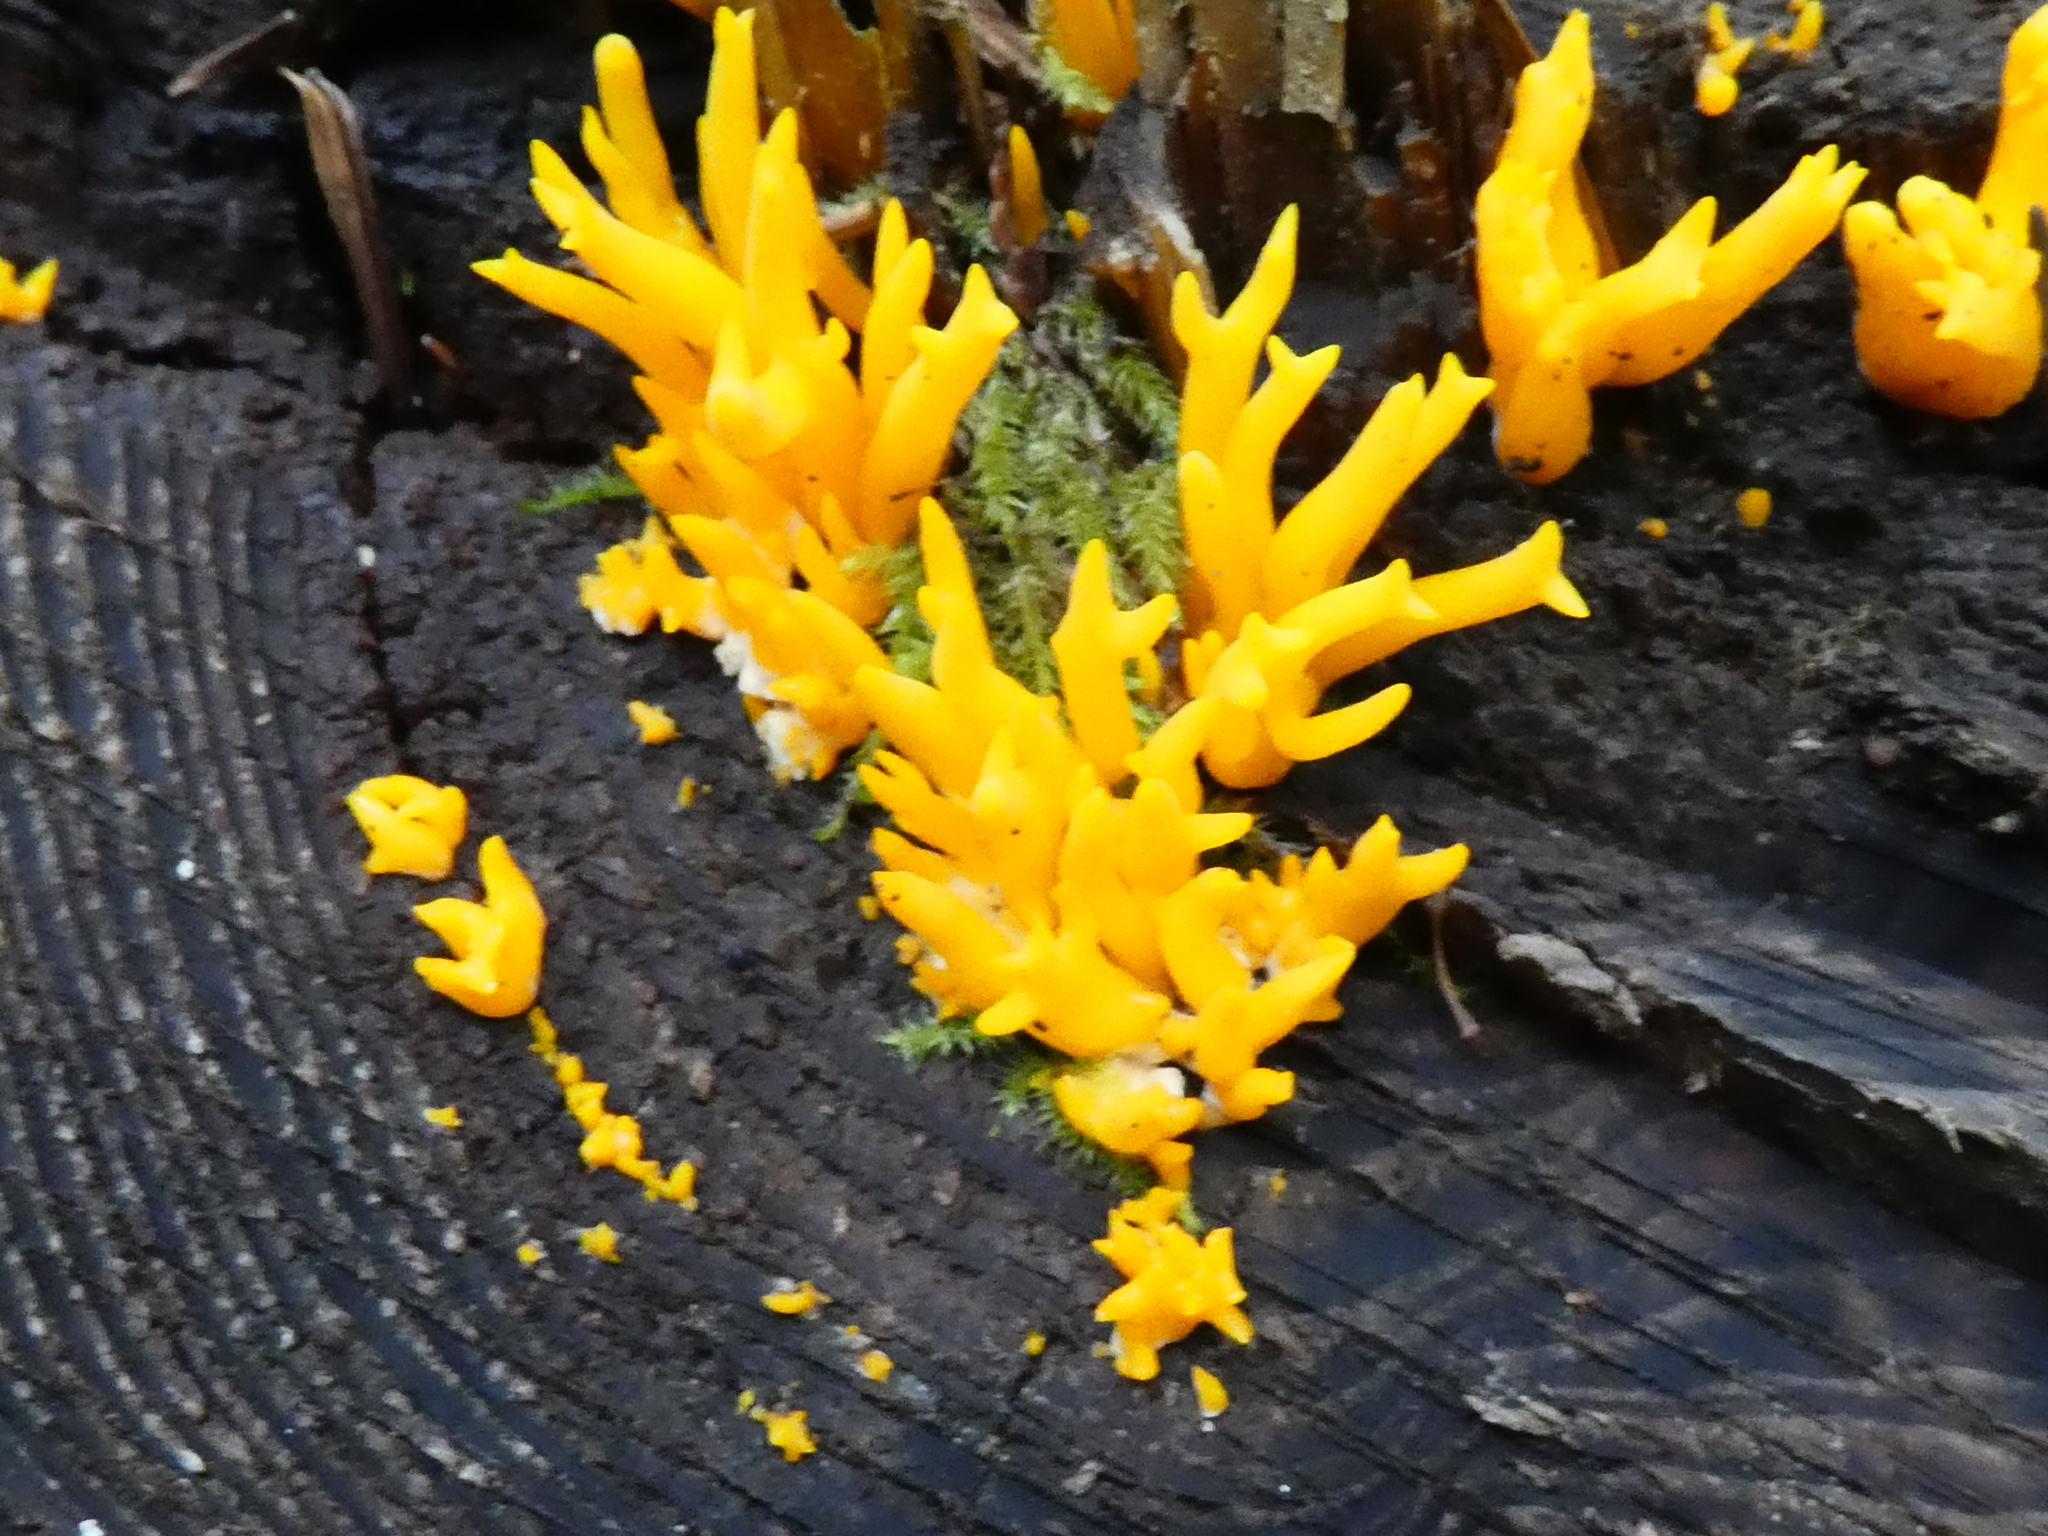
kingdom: Fungi
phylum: Basidiomycota
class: Dacrymycetes
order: Dacrymycetales
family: Dacrymycetaceae
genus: Calocera
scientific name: Calocera viscosa
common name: Yellow stagshorn
